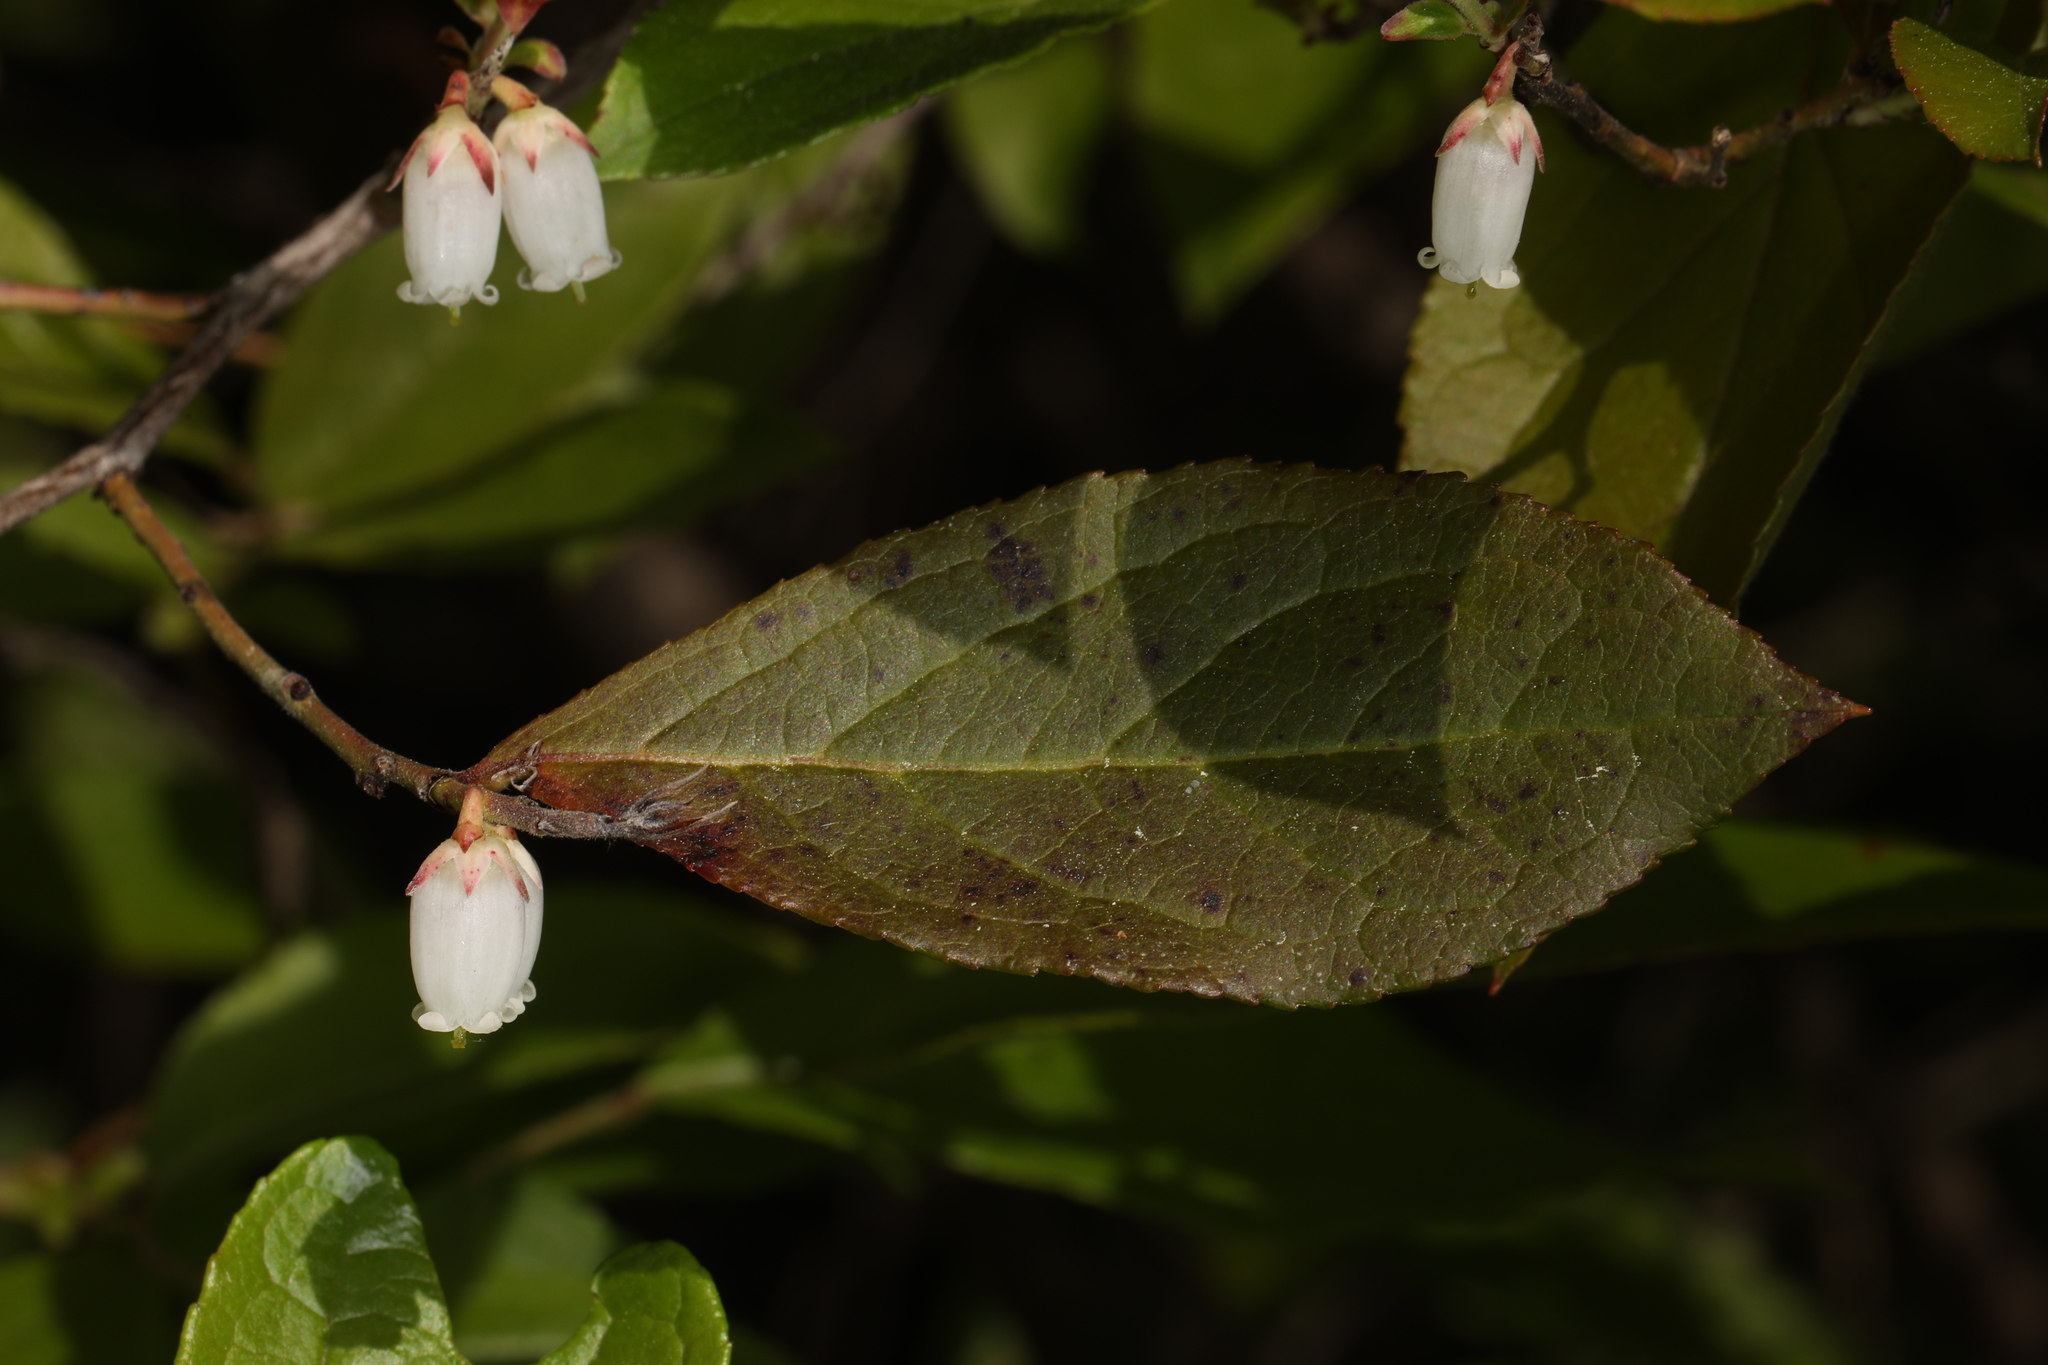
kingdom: Plantae
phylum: Tracheophyta
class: Magnoliopsida
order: Ericales
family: Ericaceae
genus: Eubotrys
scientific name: Eubotrys racemosa
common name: Fetterbush
